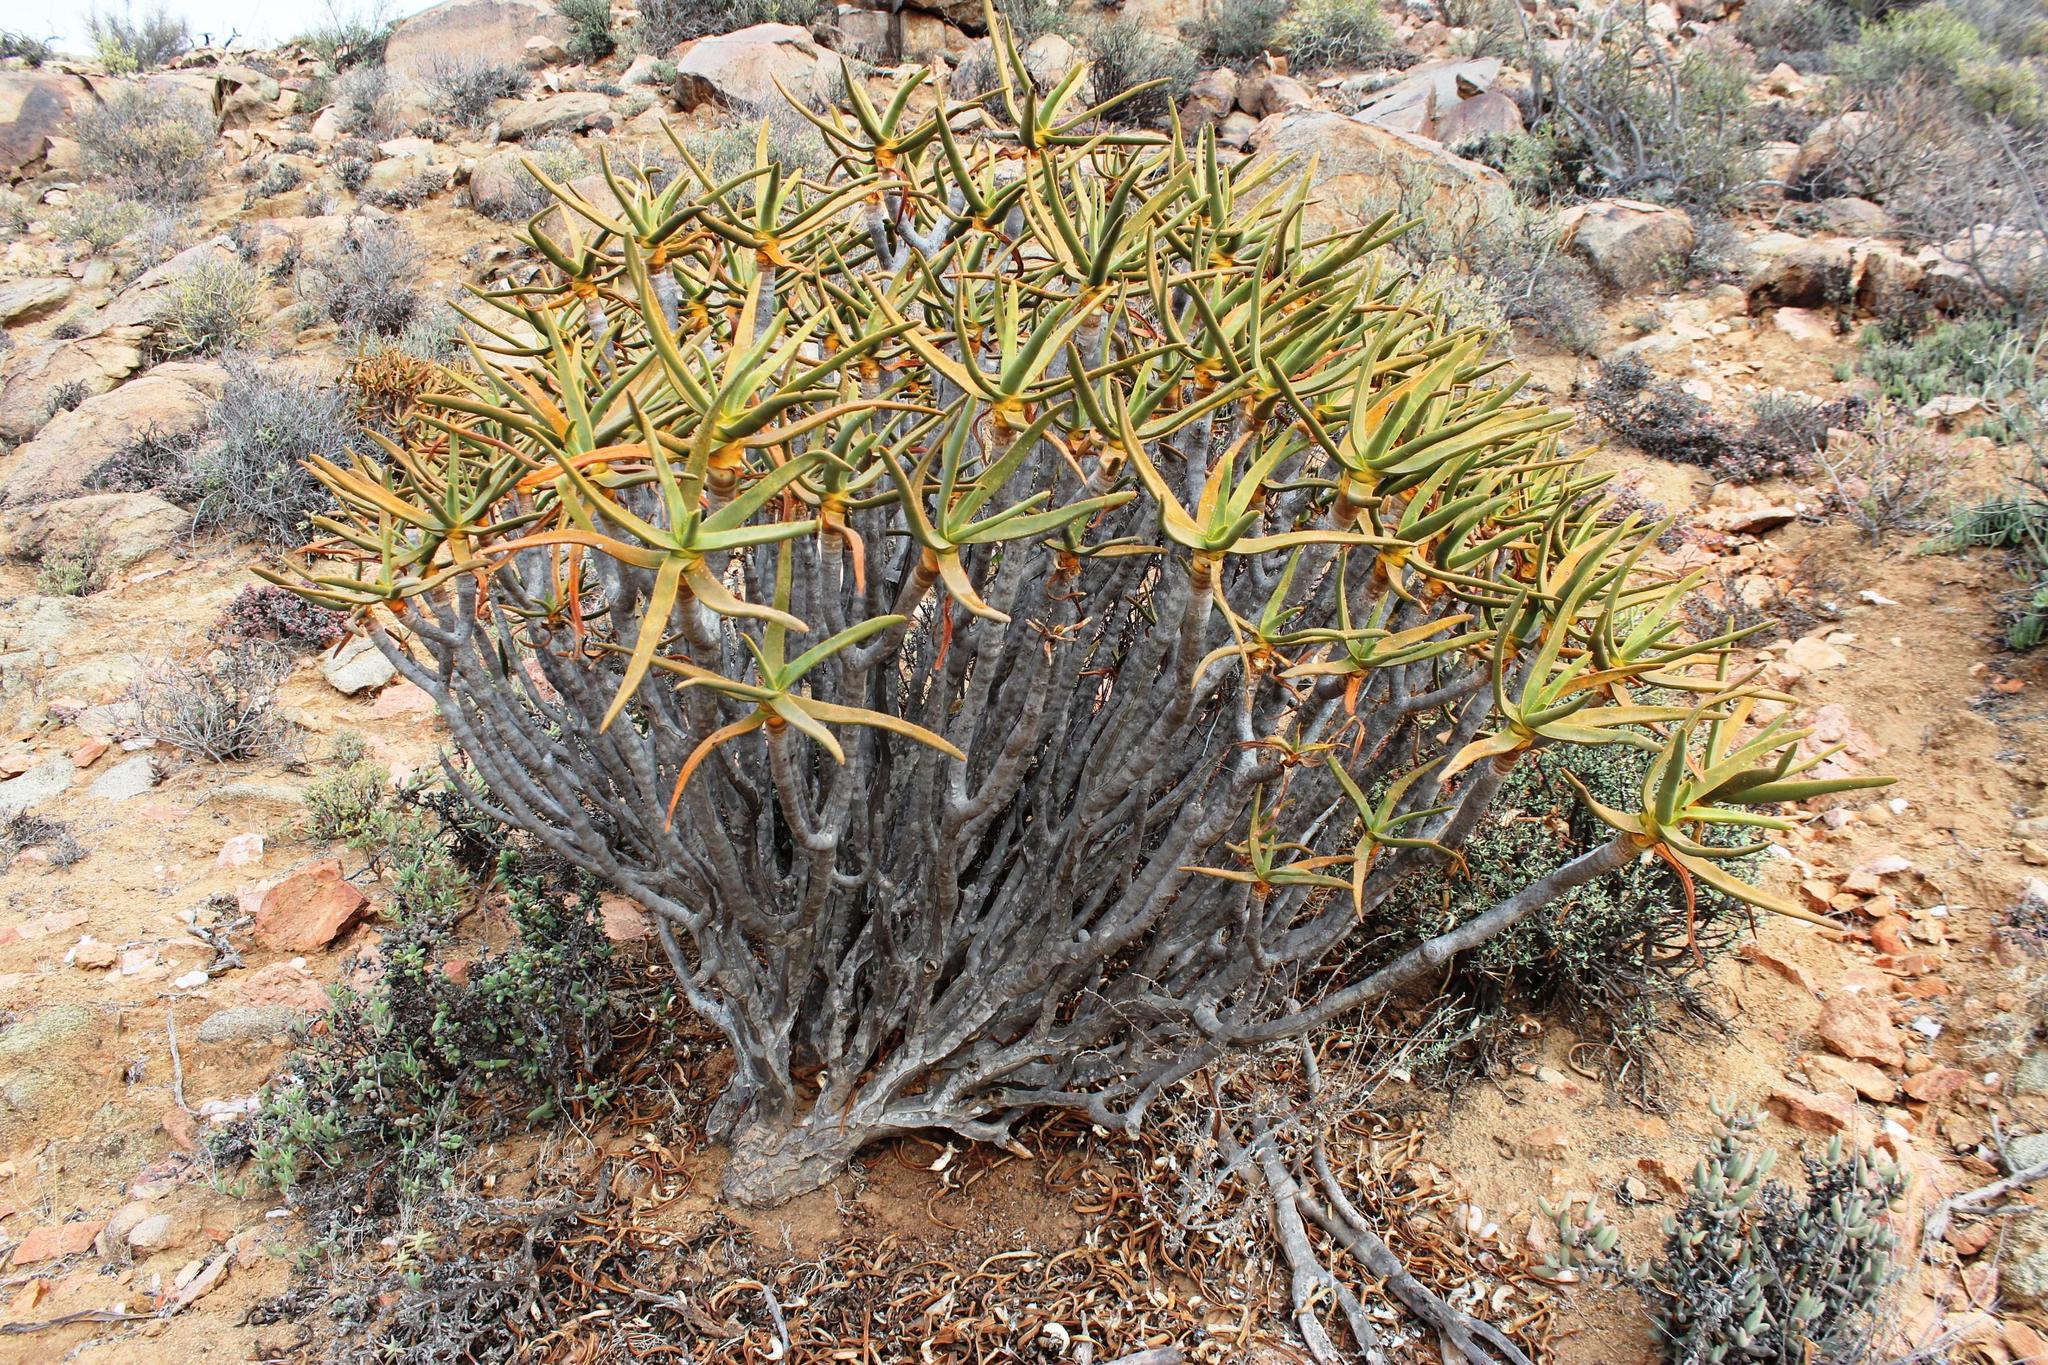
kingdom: Plantae
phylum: Tracheophyta
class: Liliopsida
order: Asparagales
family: Asphodelaceae
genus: Aloidendron
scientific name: Aloidendron ramosissimum
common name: Bush quiver tree
